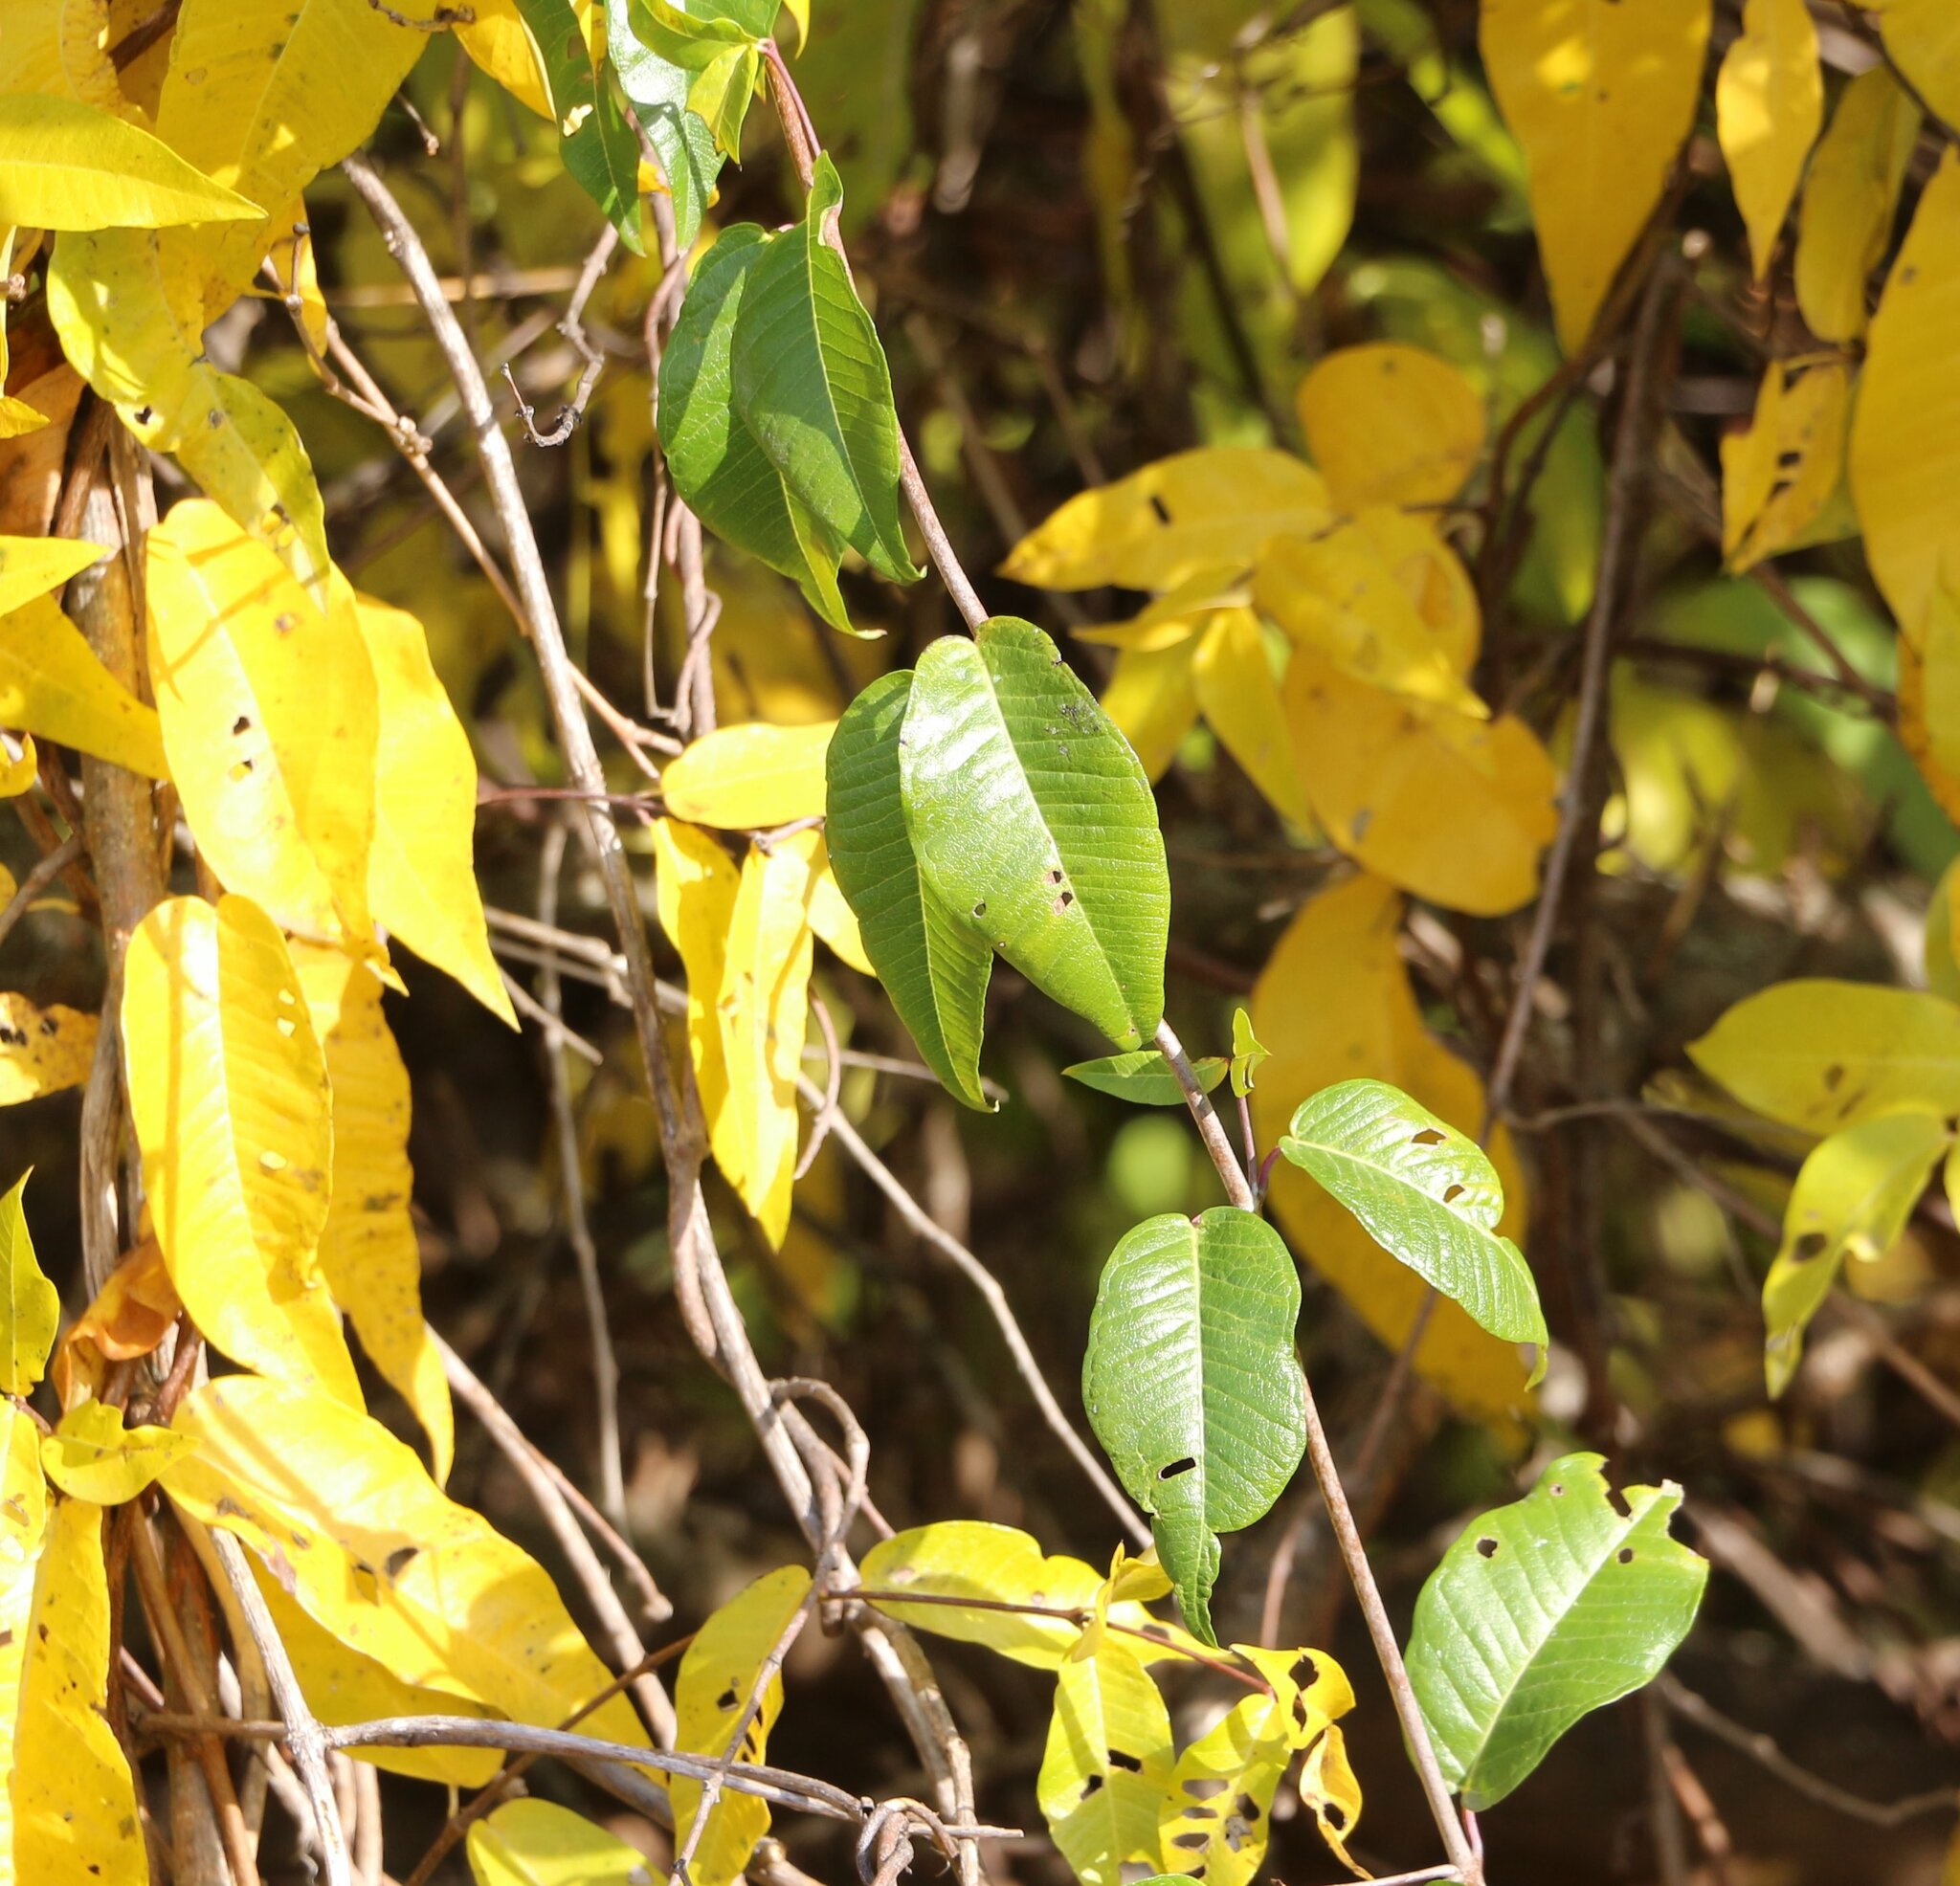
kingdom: Plantae
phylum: Tracheophyta
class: Magnoliopsida
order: Gentianales
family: Apocynaceae
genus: Periploca
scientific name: Periploca graeca
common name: Silkvine
